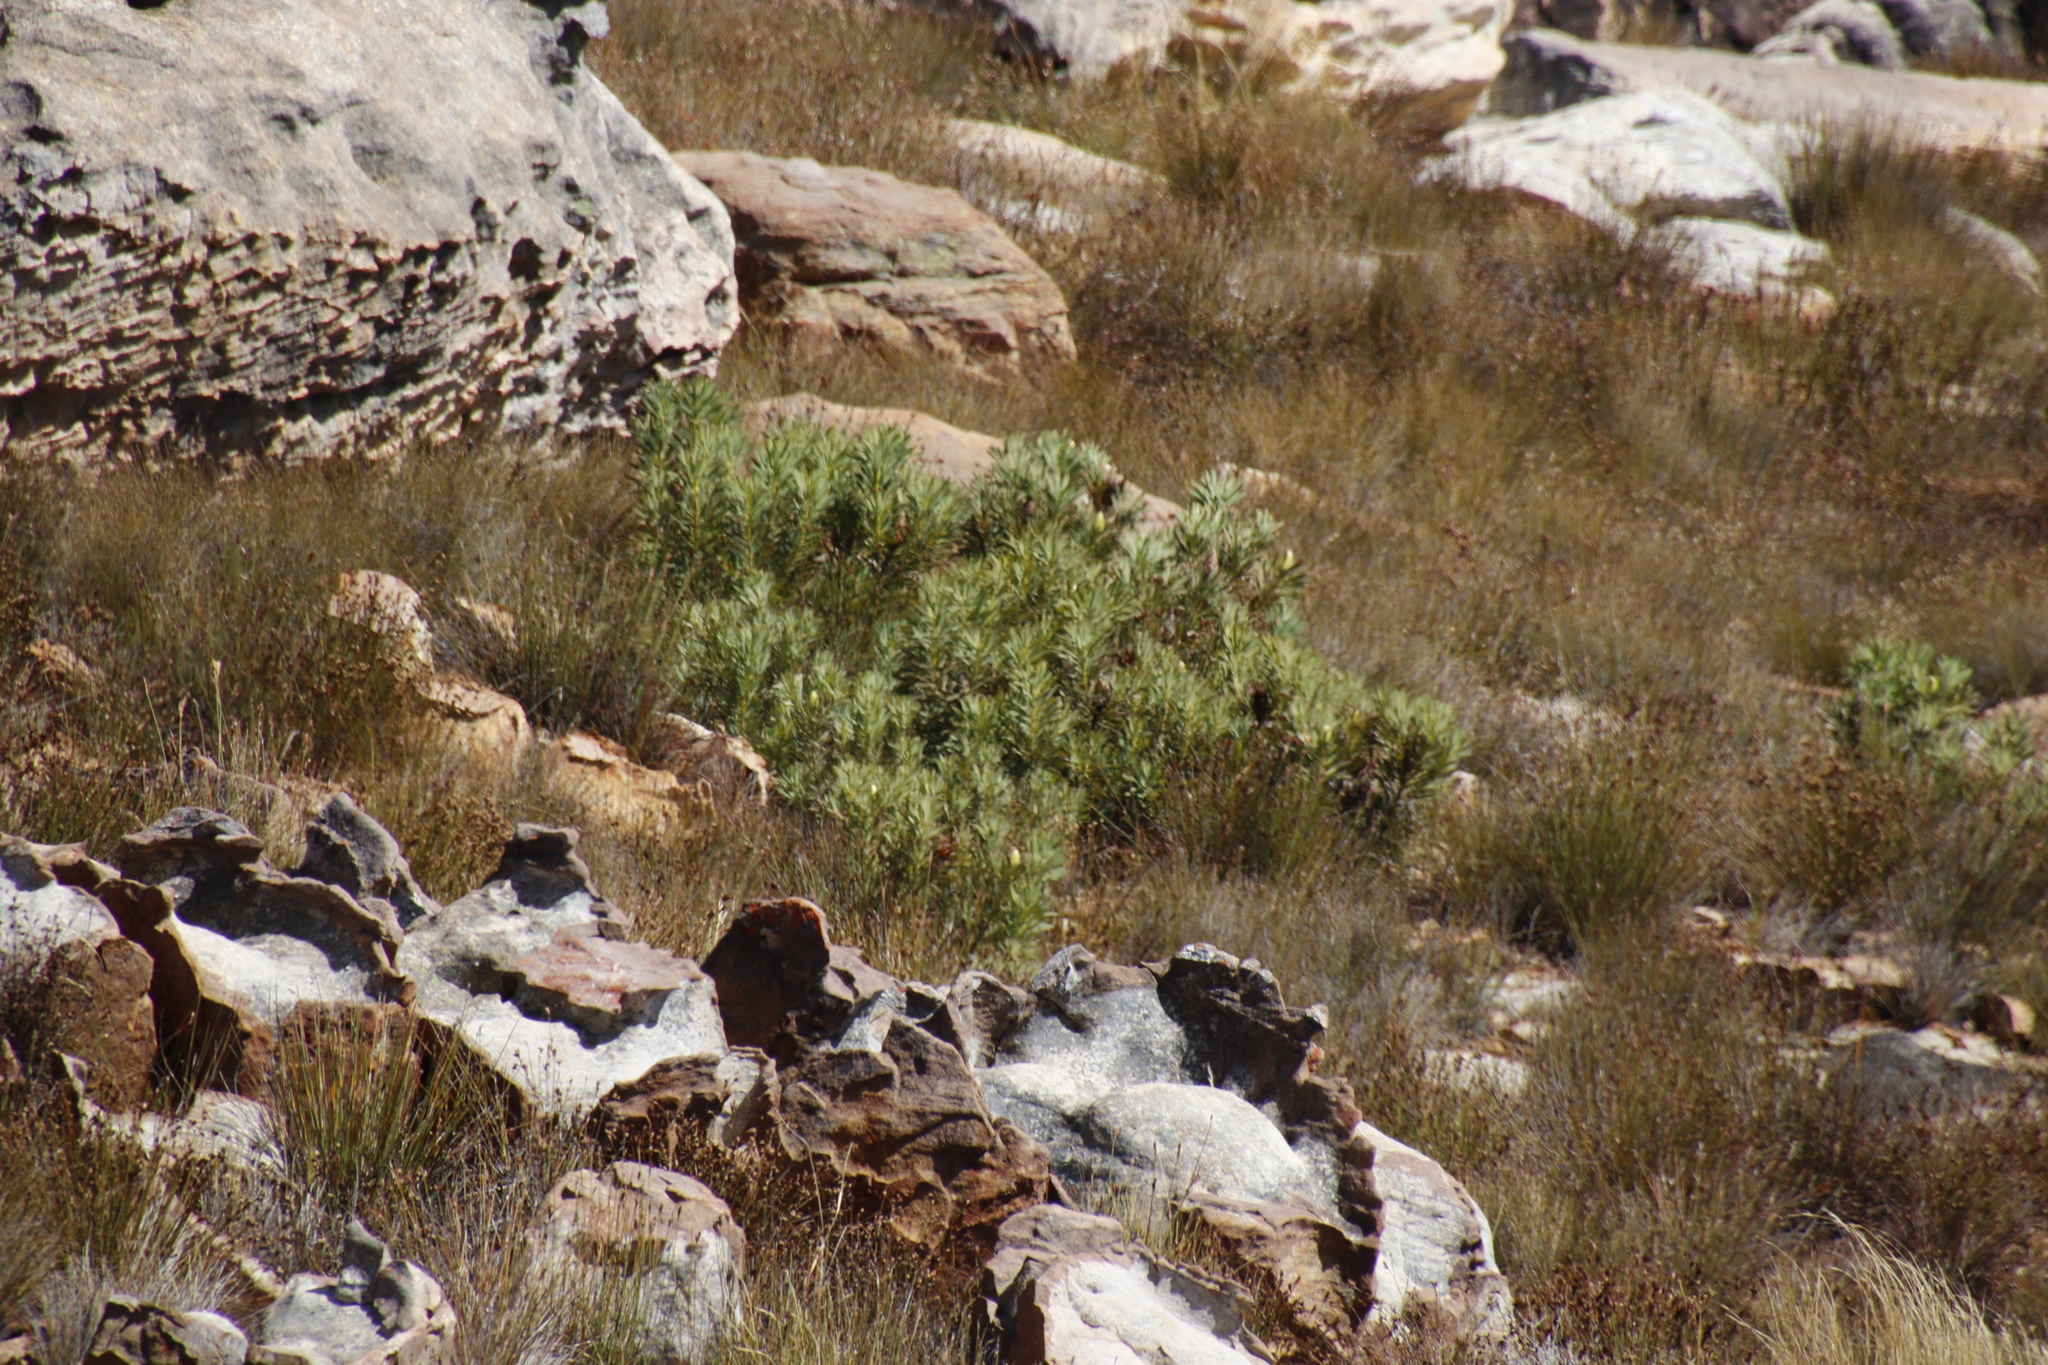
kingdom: Plantae
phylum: Tracheophyta
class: Magnoliopsida
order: Proteales
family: Proteaceae
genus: Protea
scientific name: Protea repens
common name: Sugarbush
